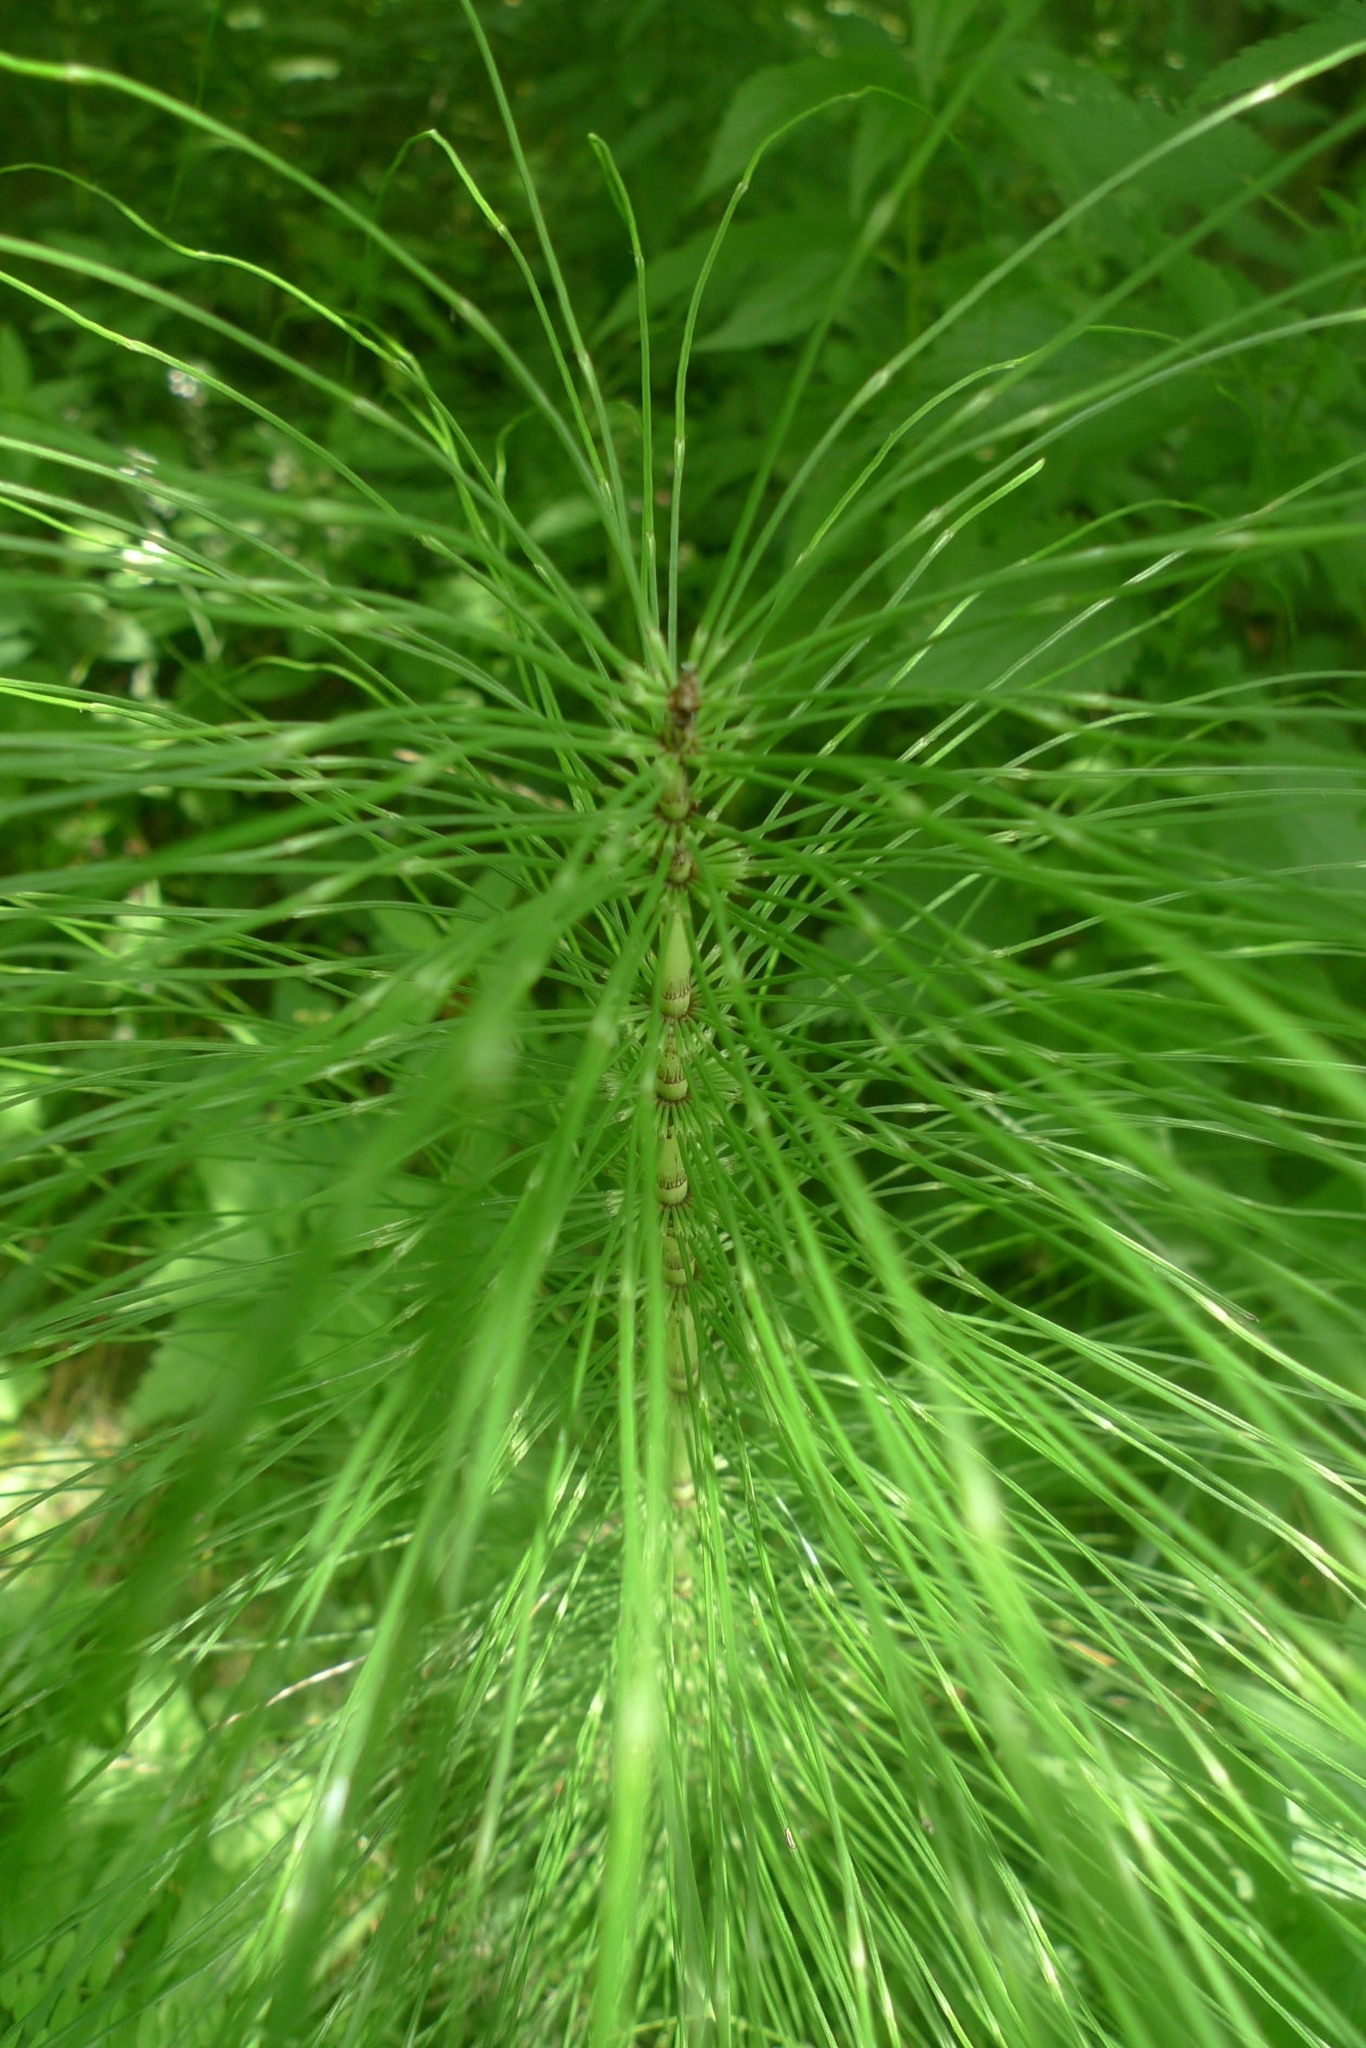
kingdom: Plantae
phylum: Tracheophyta
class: Polypodiopsida
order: Equisetales
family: Equisetaceae
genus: Equisetum
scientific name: Equisetum telmateia
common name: Great horsetail
